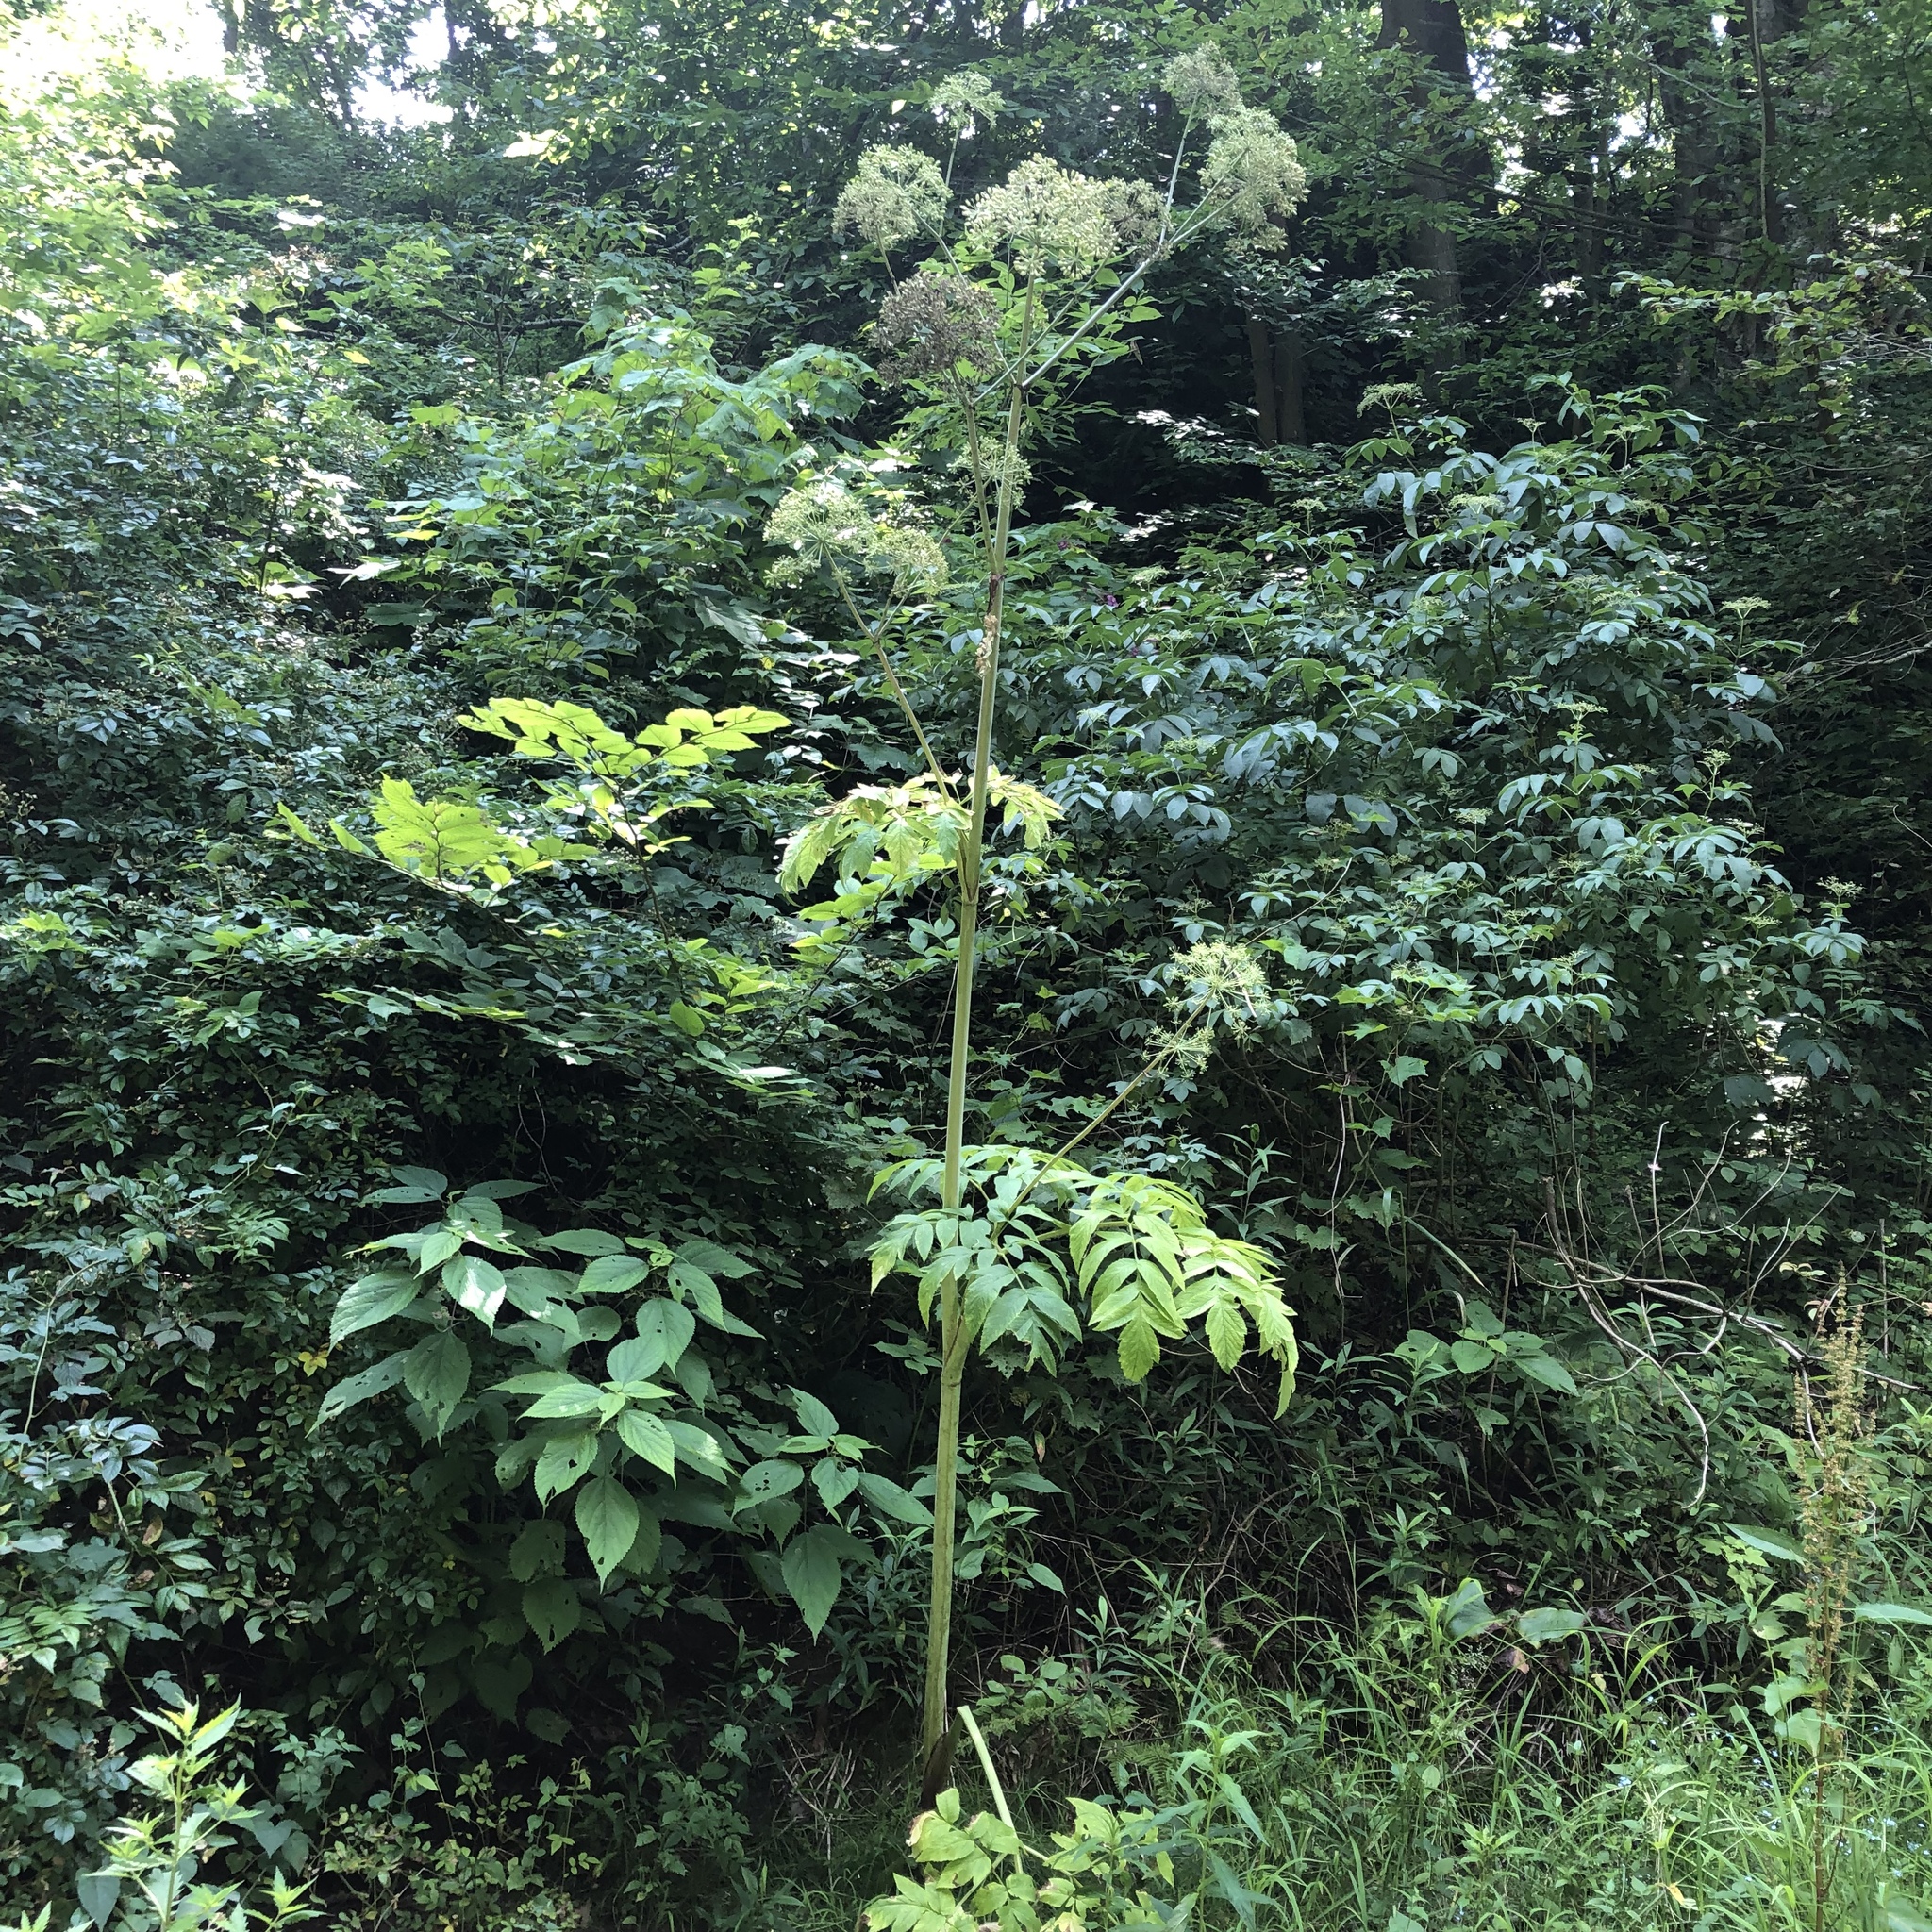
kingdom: Plantae
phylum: Tracheophyta
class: Magnoliopsida
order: Apiales
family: Apiaceae
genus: Angelica
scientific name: Angelica atropurpurea
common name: Great angelica
